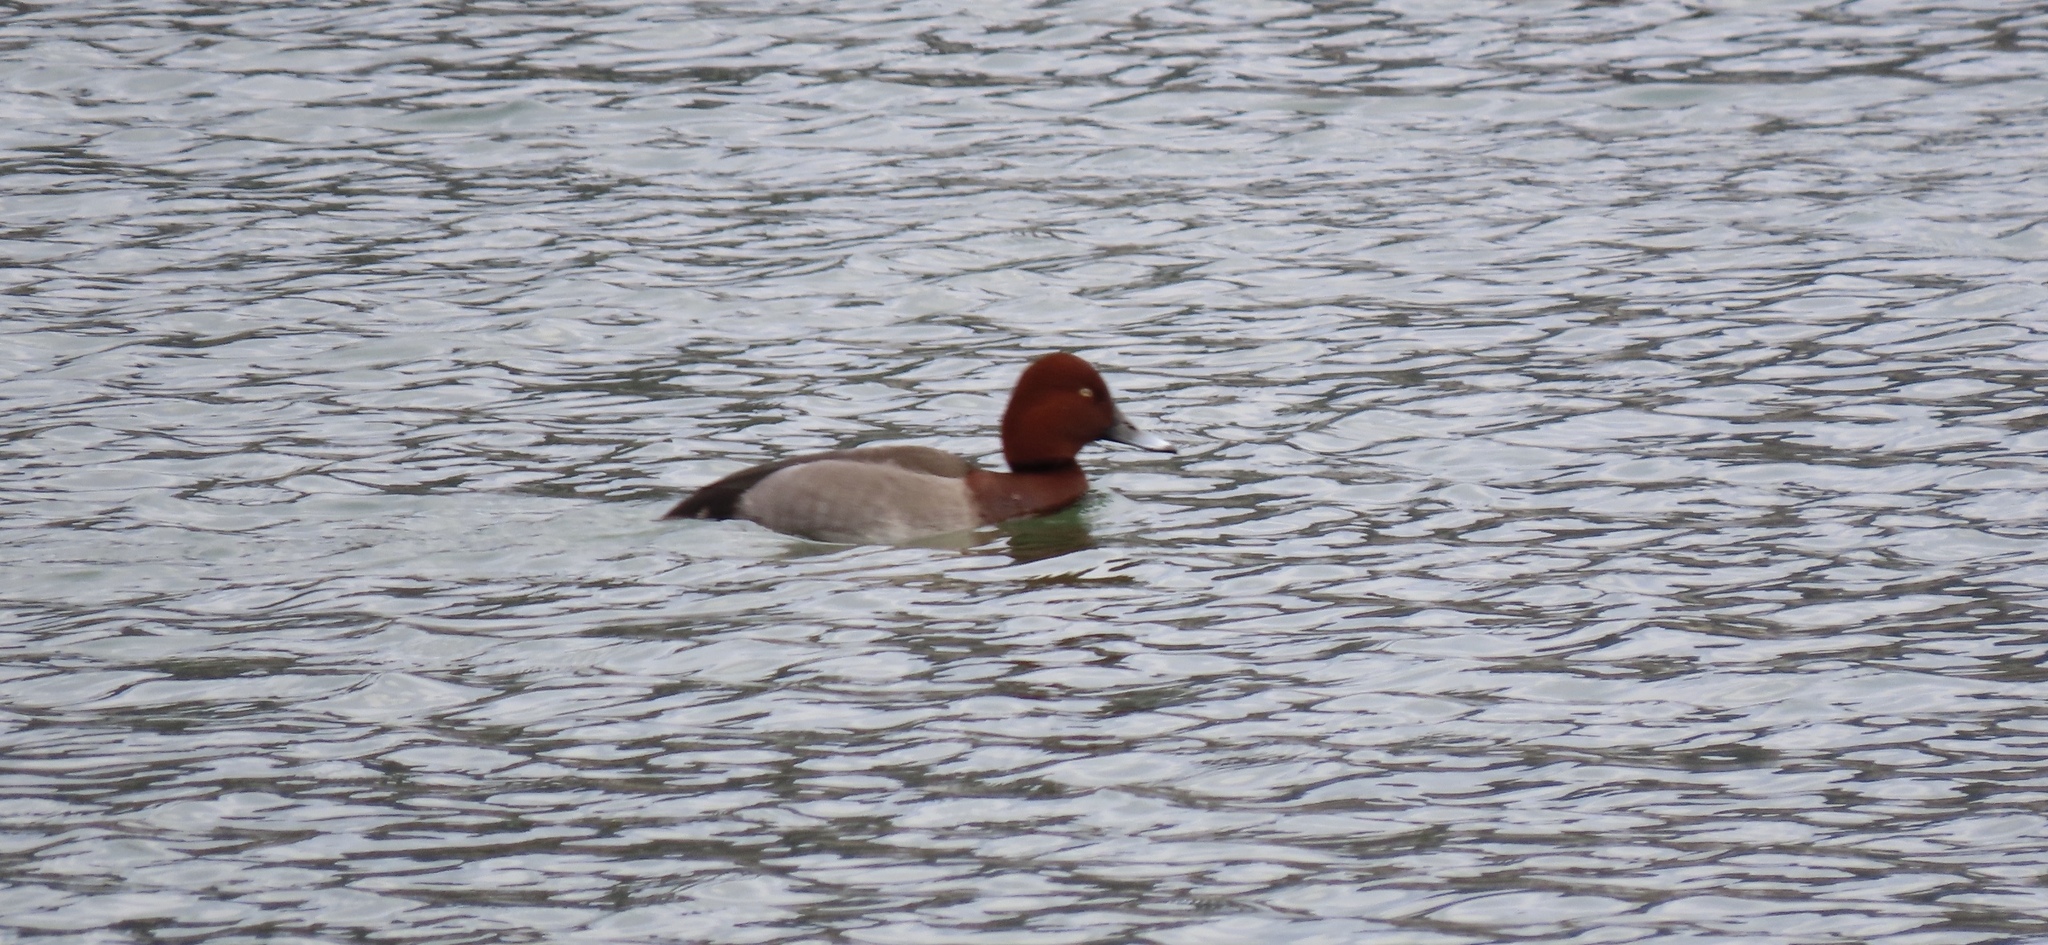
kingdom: Animalia
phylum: Chordata
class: Aves
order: Anseriformes
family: Anatidae
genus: Aythya
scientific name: Aythya
